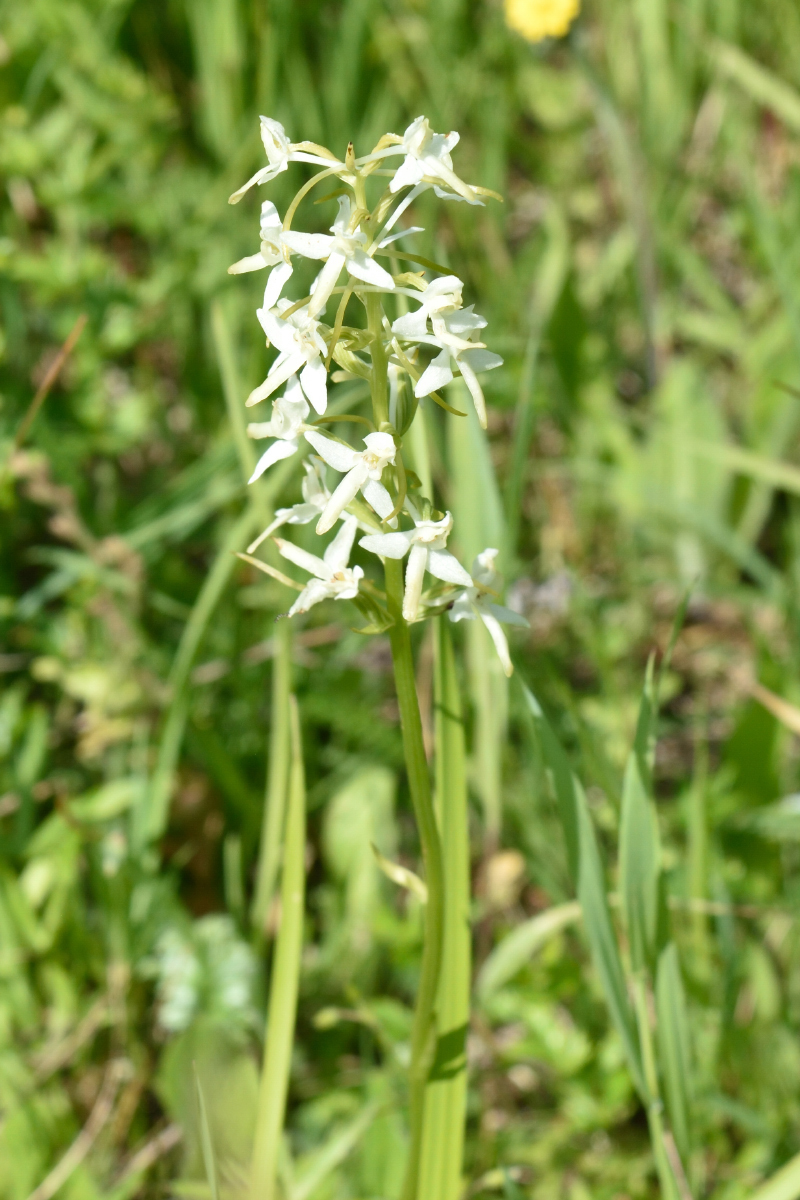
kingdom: Plantae
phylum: Tracheophyta
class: Liliopsida
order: Asparagales
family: Orchidaceae
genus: Platanthera
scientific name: Platanthera bifolia
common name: Lesser butterfly-orchid
